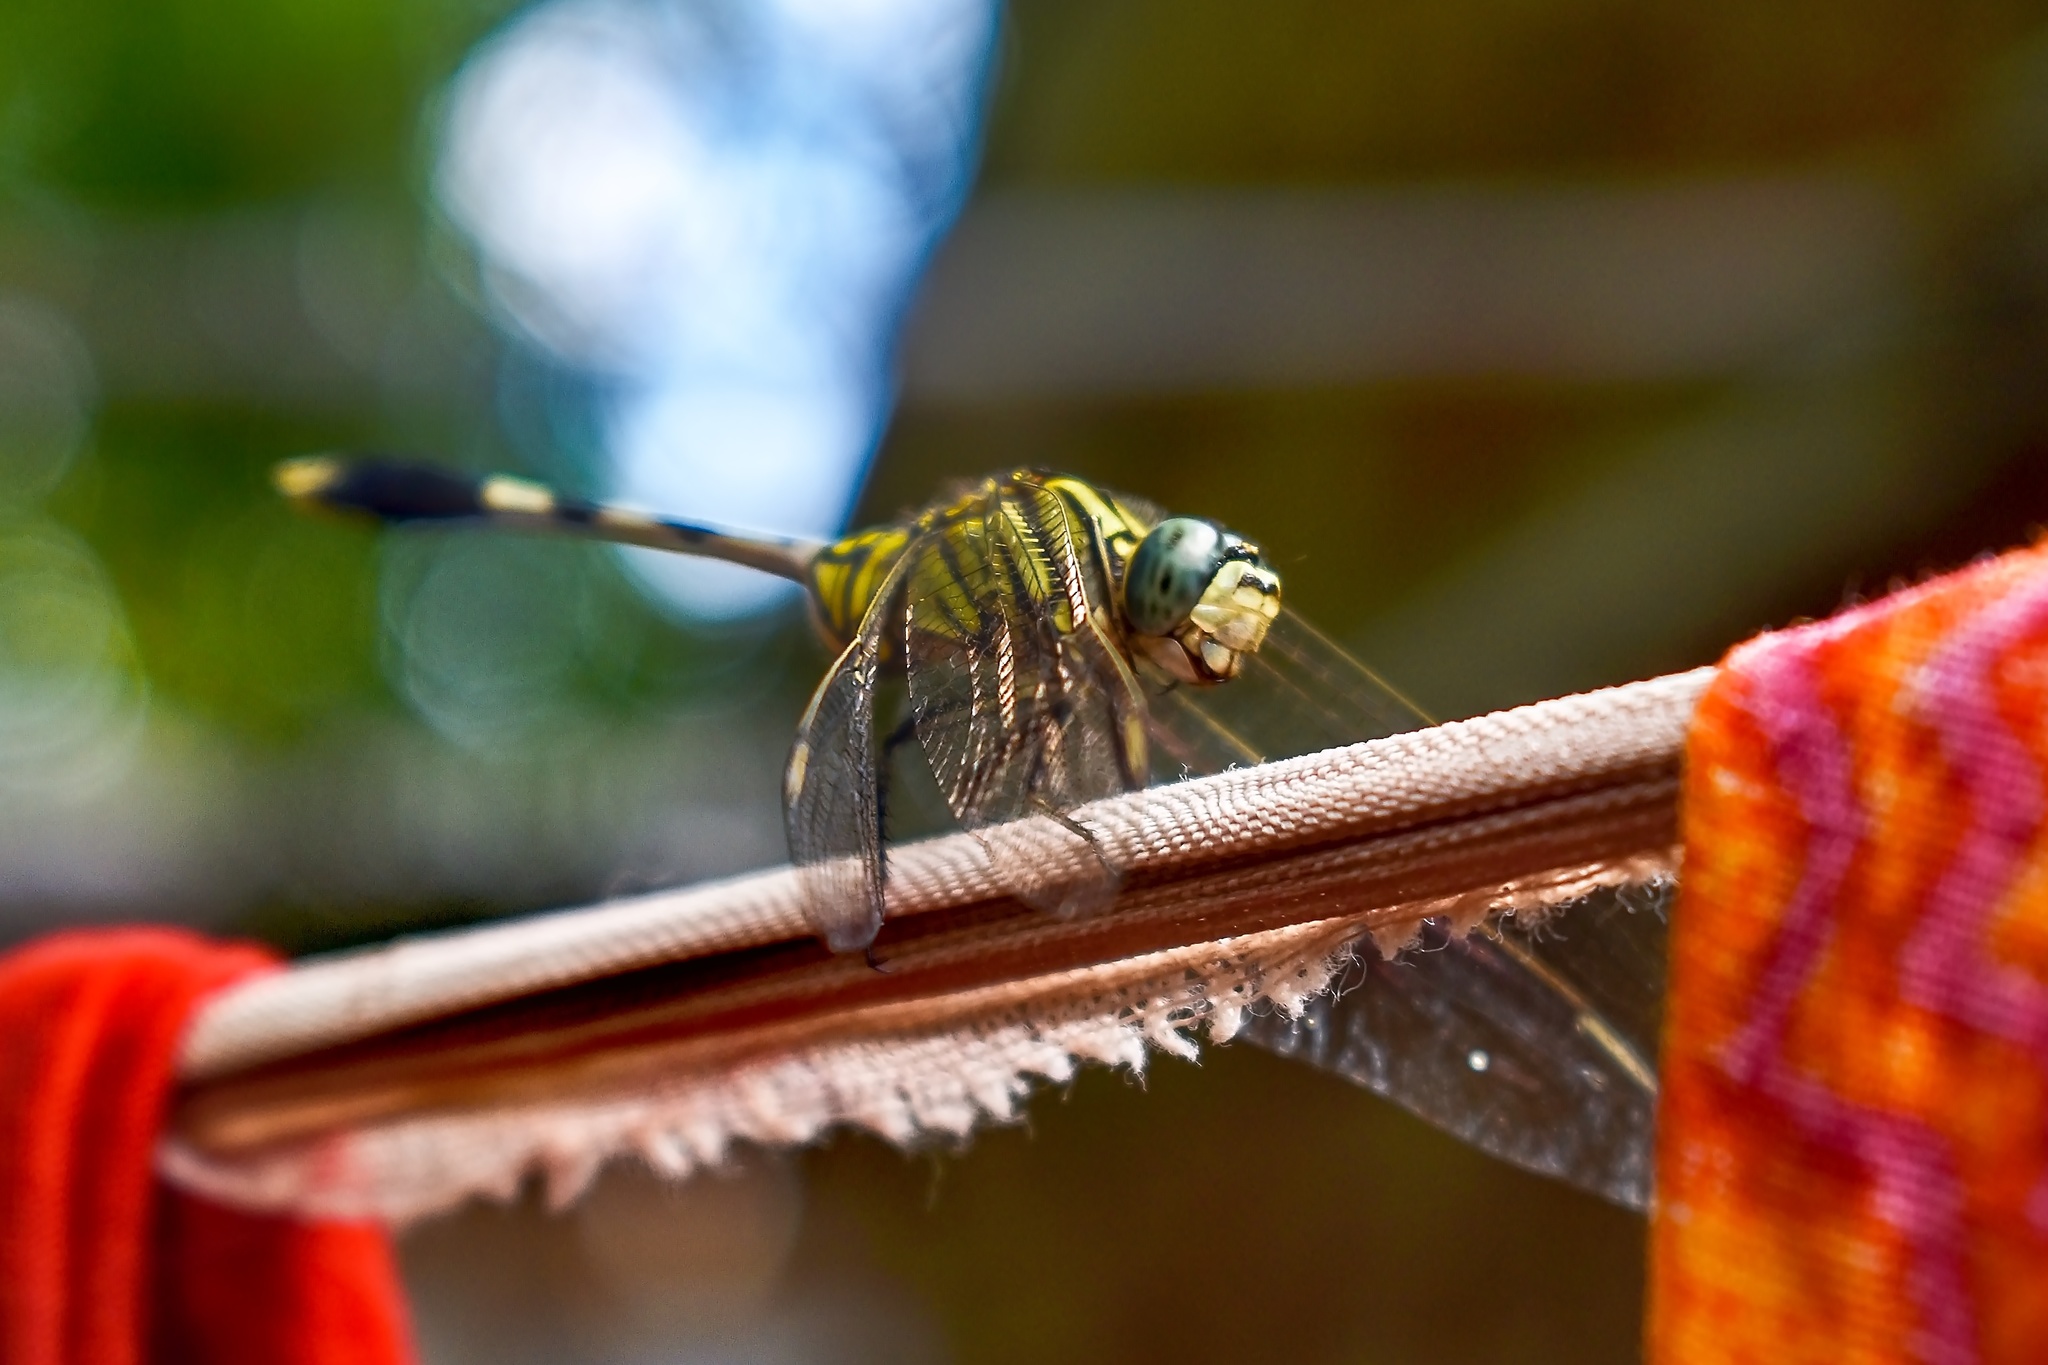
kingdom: Animalia
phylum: Arthropoda
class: Insecta
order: Odonata
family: Libellulidae
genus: Orthetrum
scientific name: Orthetrum sabina
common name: Slender skimmer
